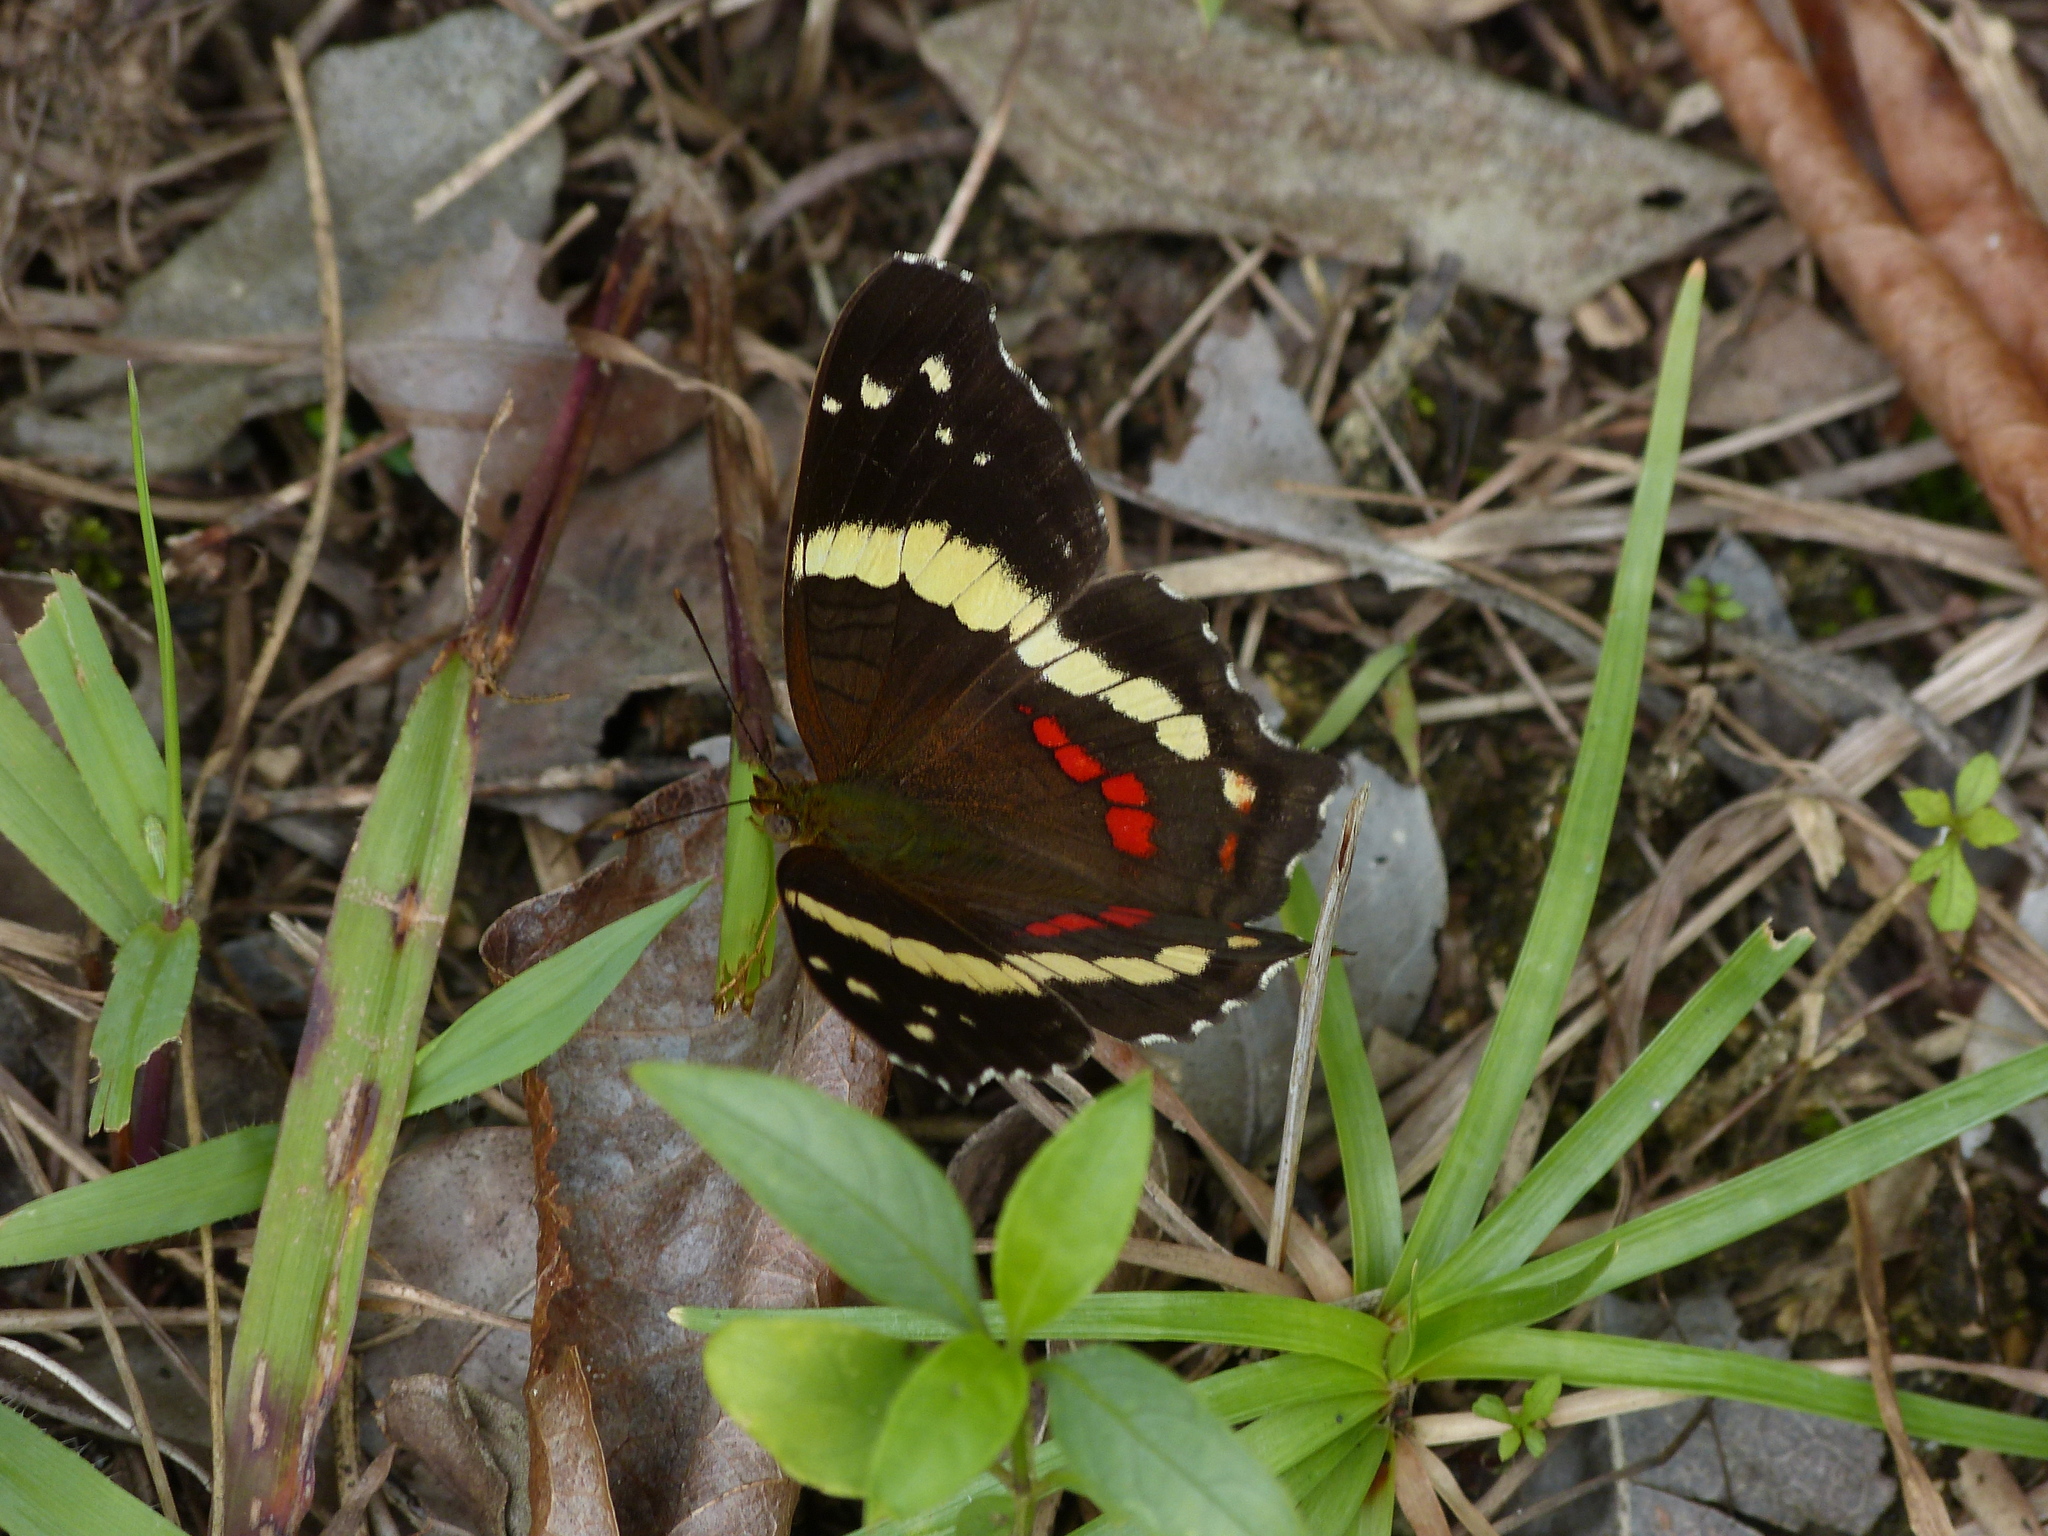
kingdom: Animalia
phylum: Arthropoda
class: Insecta
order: Lepidoptera
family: Nymphalidae
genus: Anartia
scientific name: Anartia fatima
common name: Banded peacock
